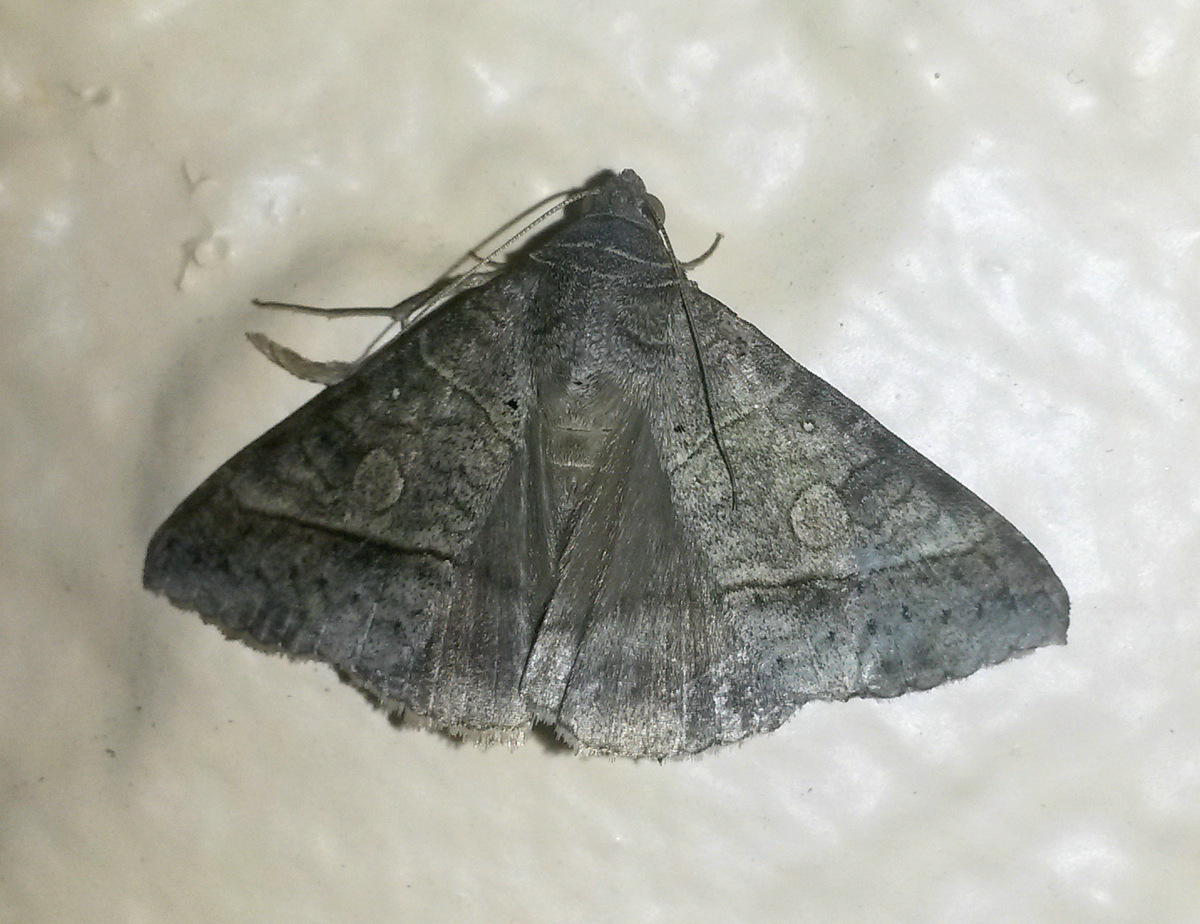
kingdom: Animalia
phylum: Arthropoda
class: Insecta
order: Lepidoptera
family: Erebidae
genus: Mocis
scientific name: Mocis latipes
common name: Striped grass looper
